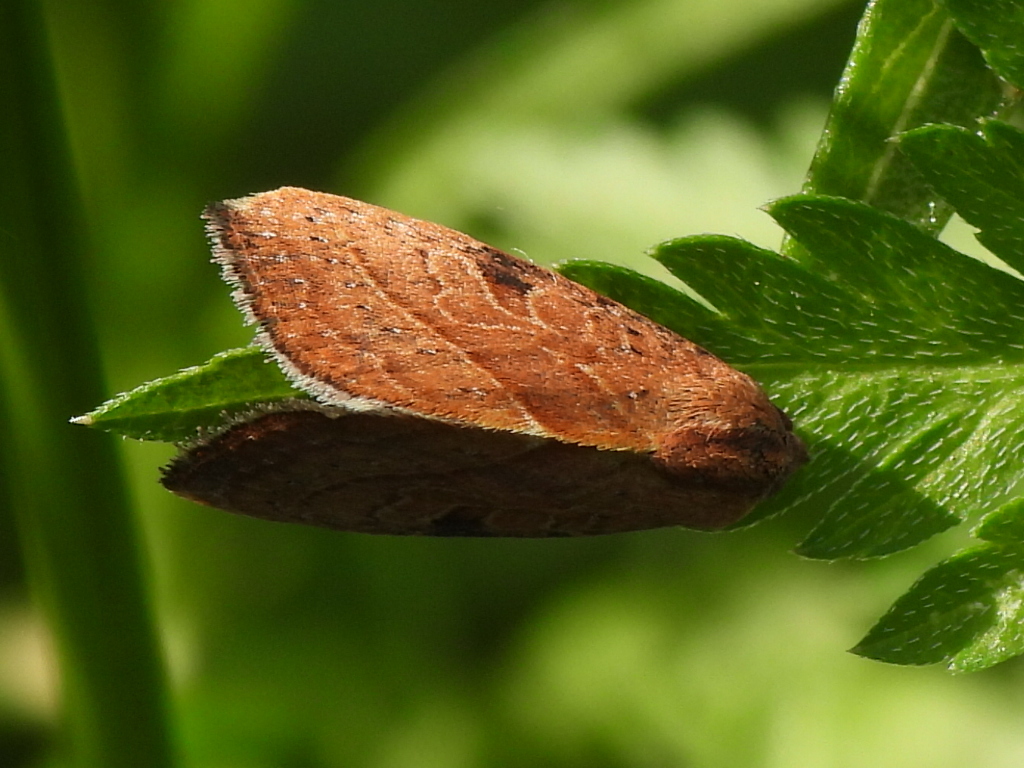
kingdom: Animalia
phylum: Arthropoda
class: Insecta
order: Lepidoptera
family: Noctuidae
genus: Galgula
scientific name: Galgula partita
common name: Wedgeling
